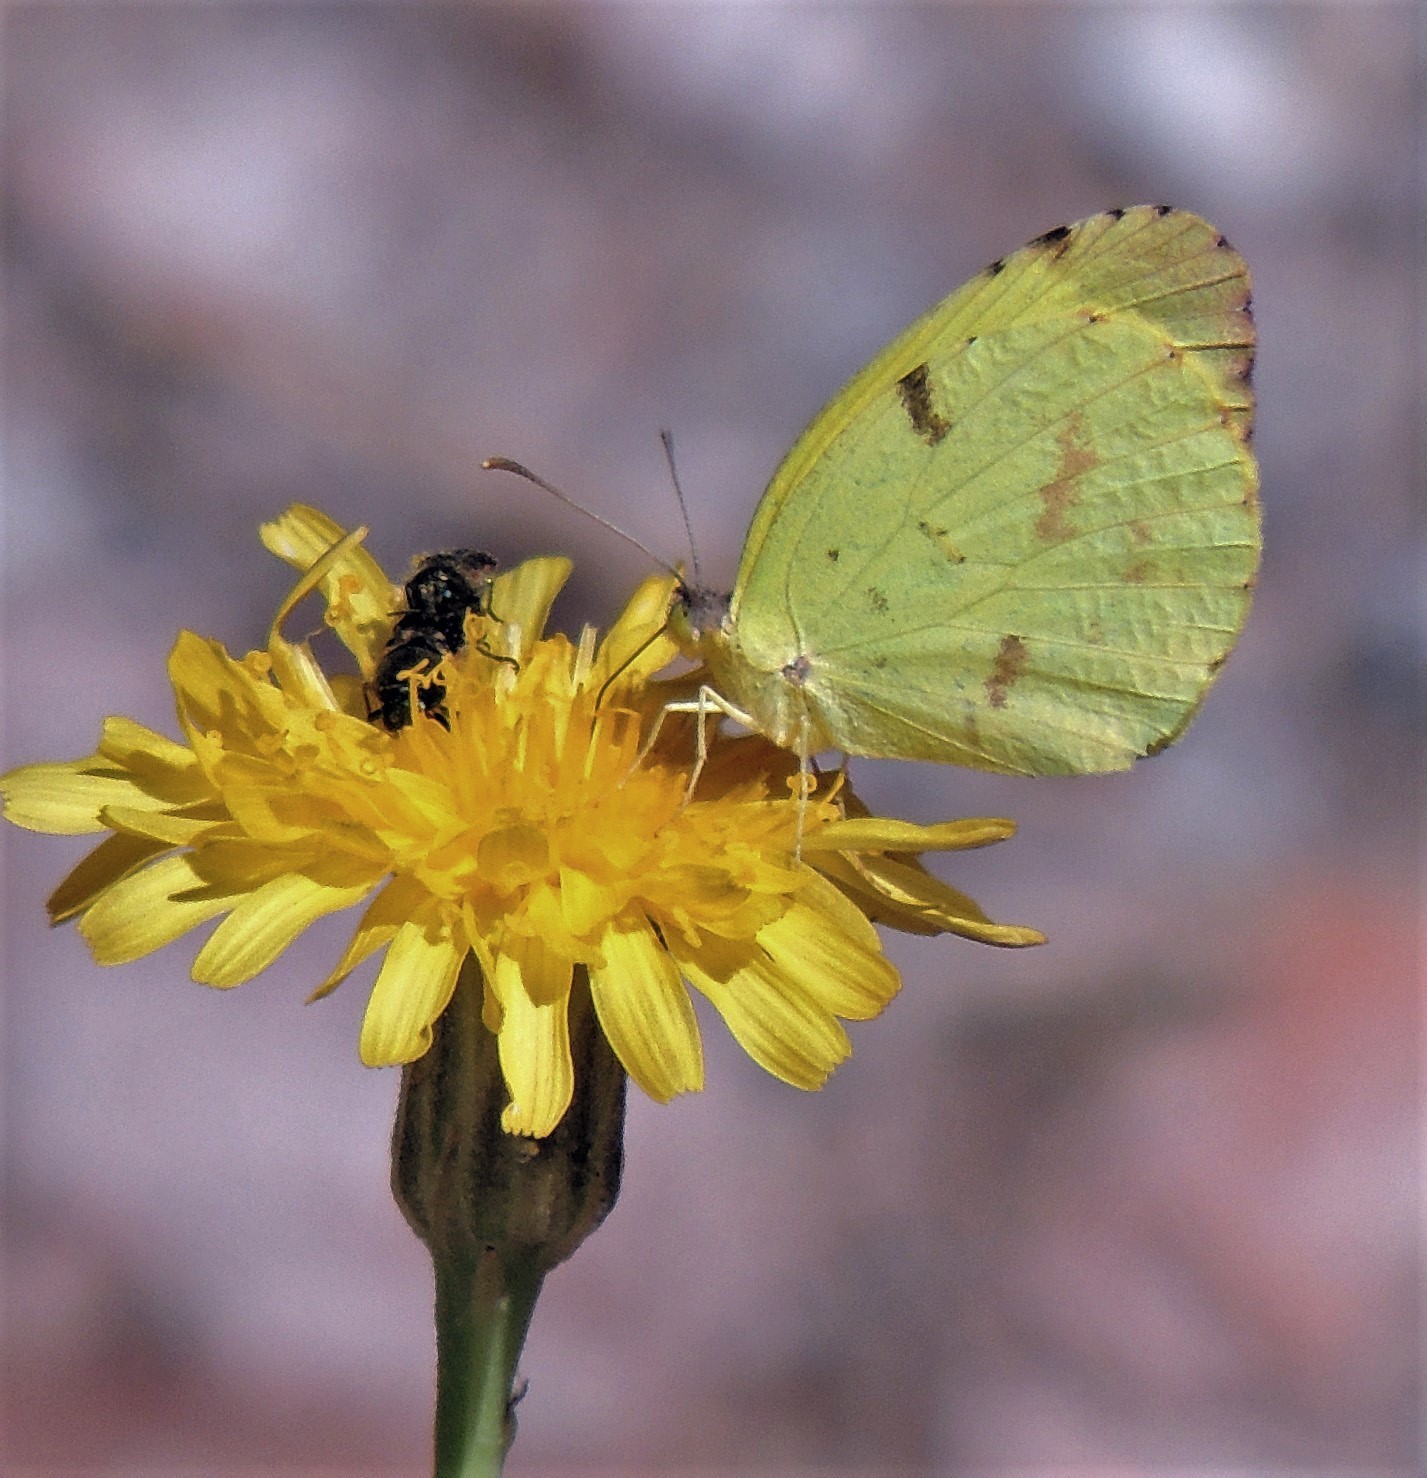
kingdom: Animalia
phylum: Arthropoda
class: Insecta
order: Lepidoptera
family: Pieridae
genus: Teriocolias
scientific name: Teriocolias
